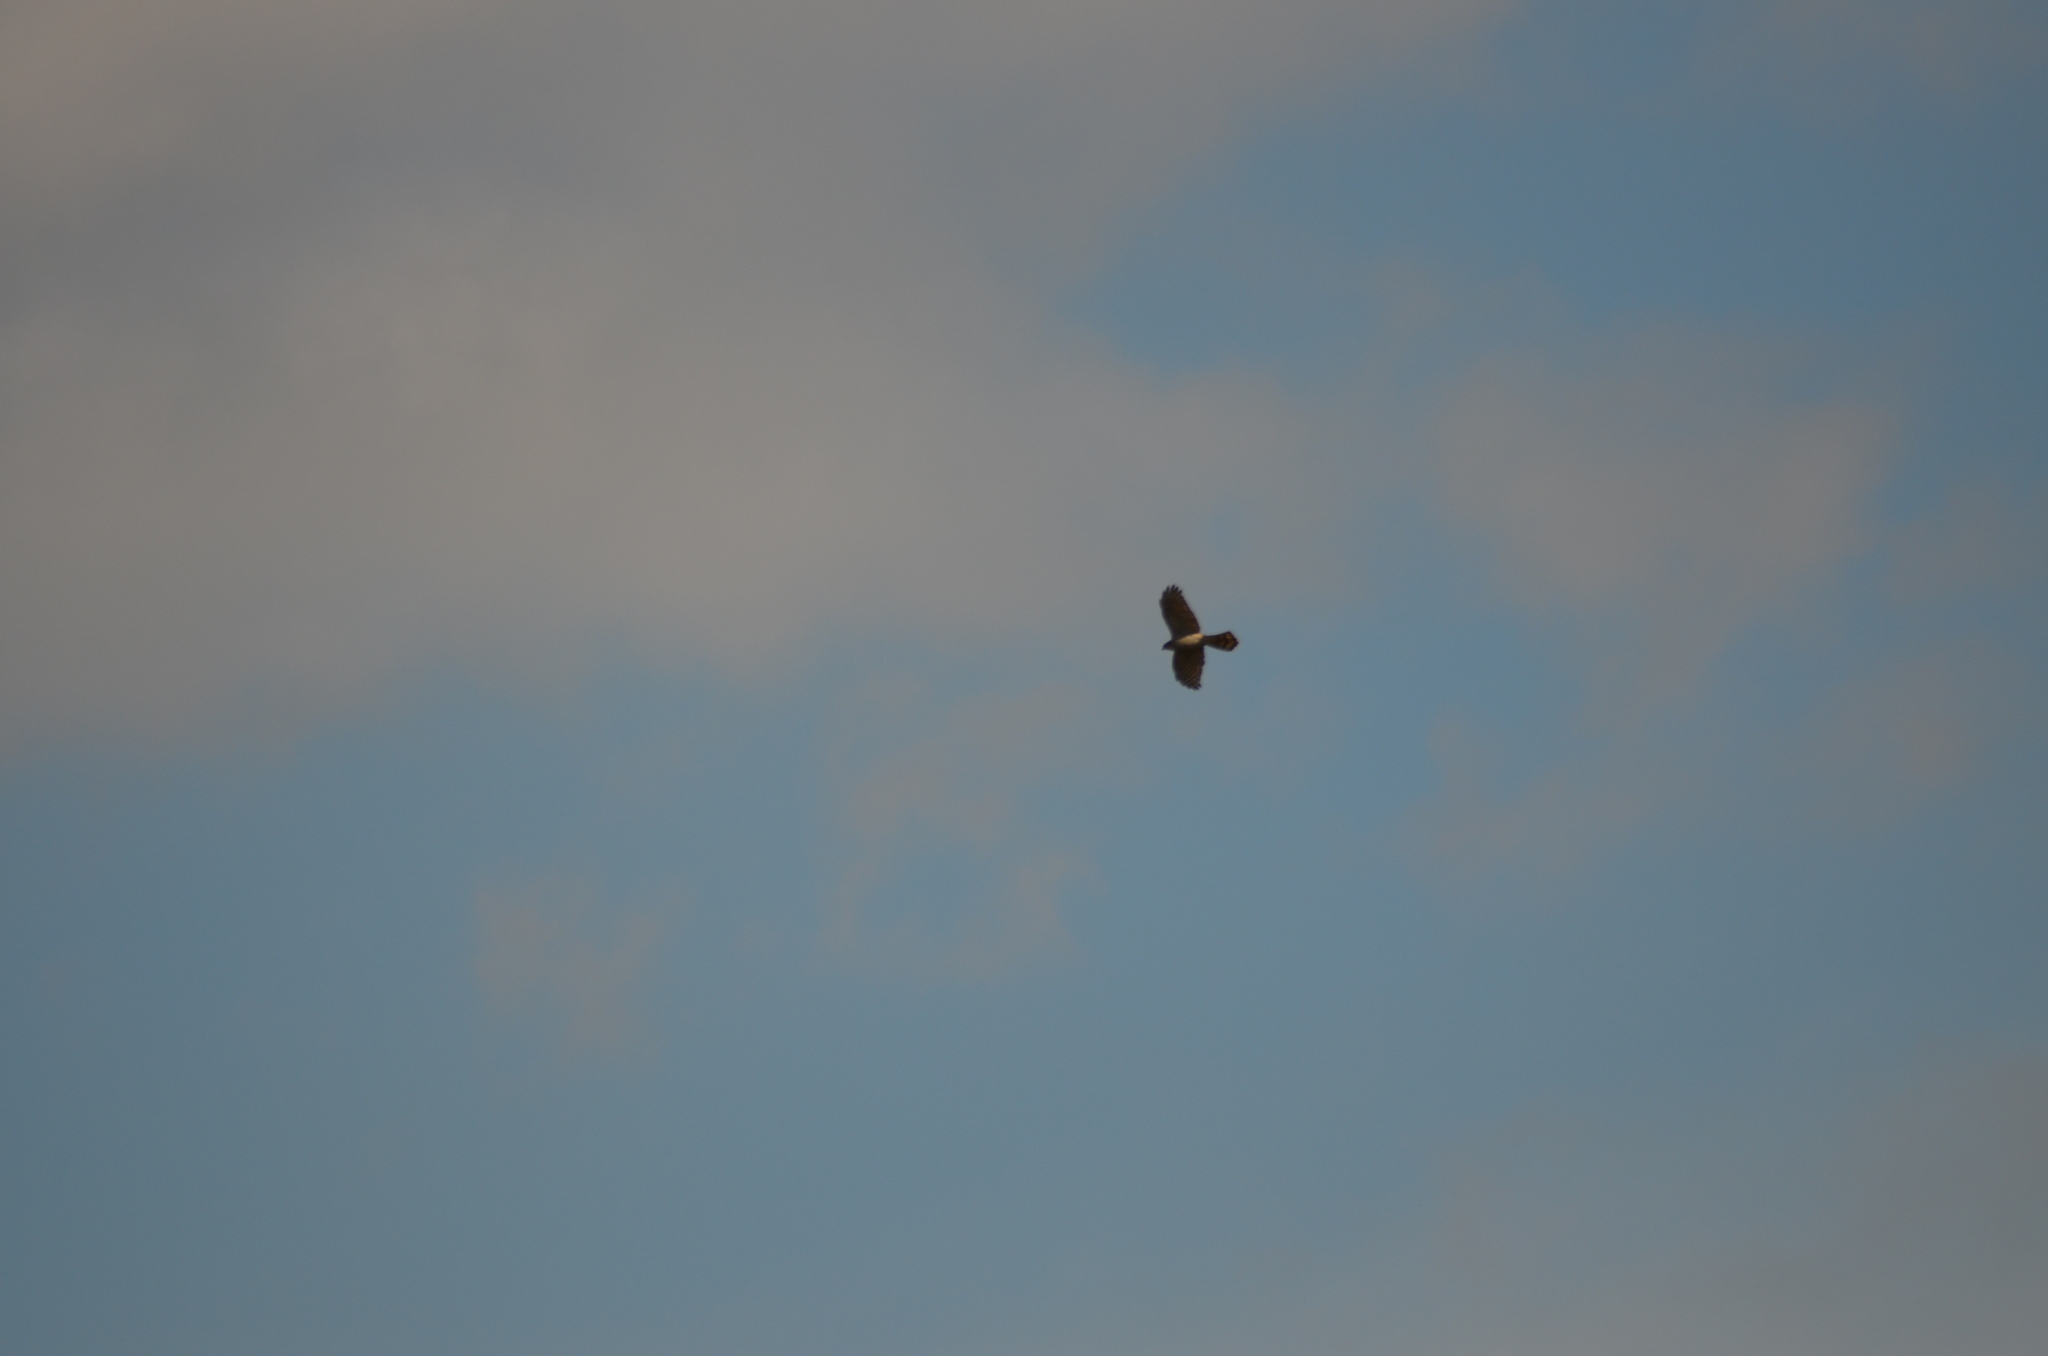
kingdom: Animalia
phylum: Chordata
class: Aves
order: Accipitriformes
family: Accipitridae
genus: Accipiter
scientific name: Accipiter nisus
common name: Eurasian sparrowhawk
